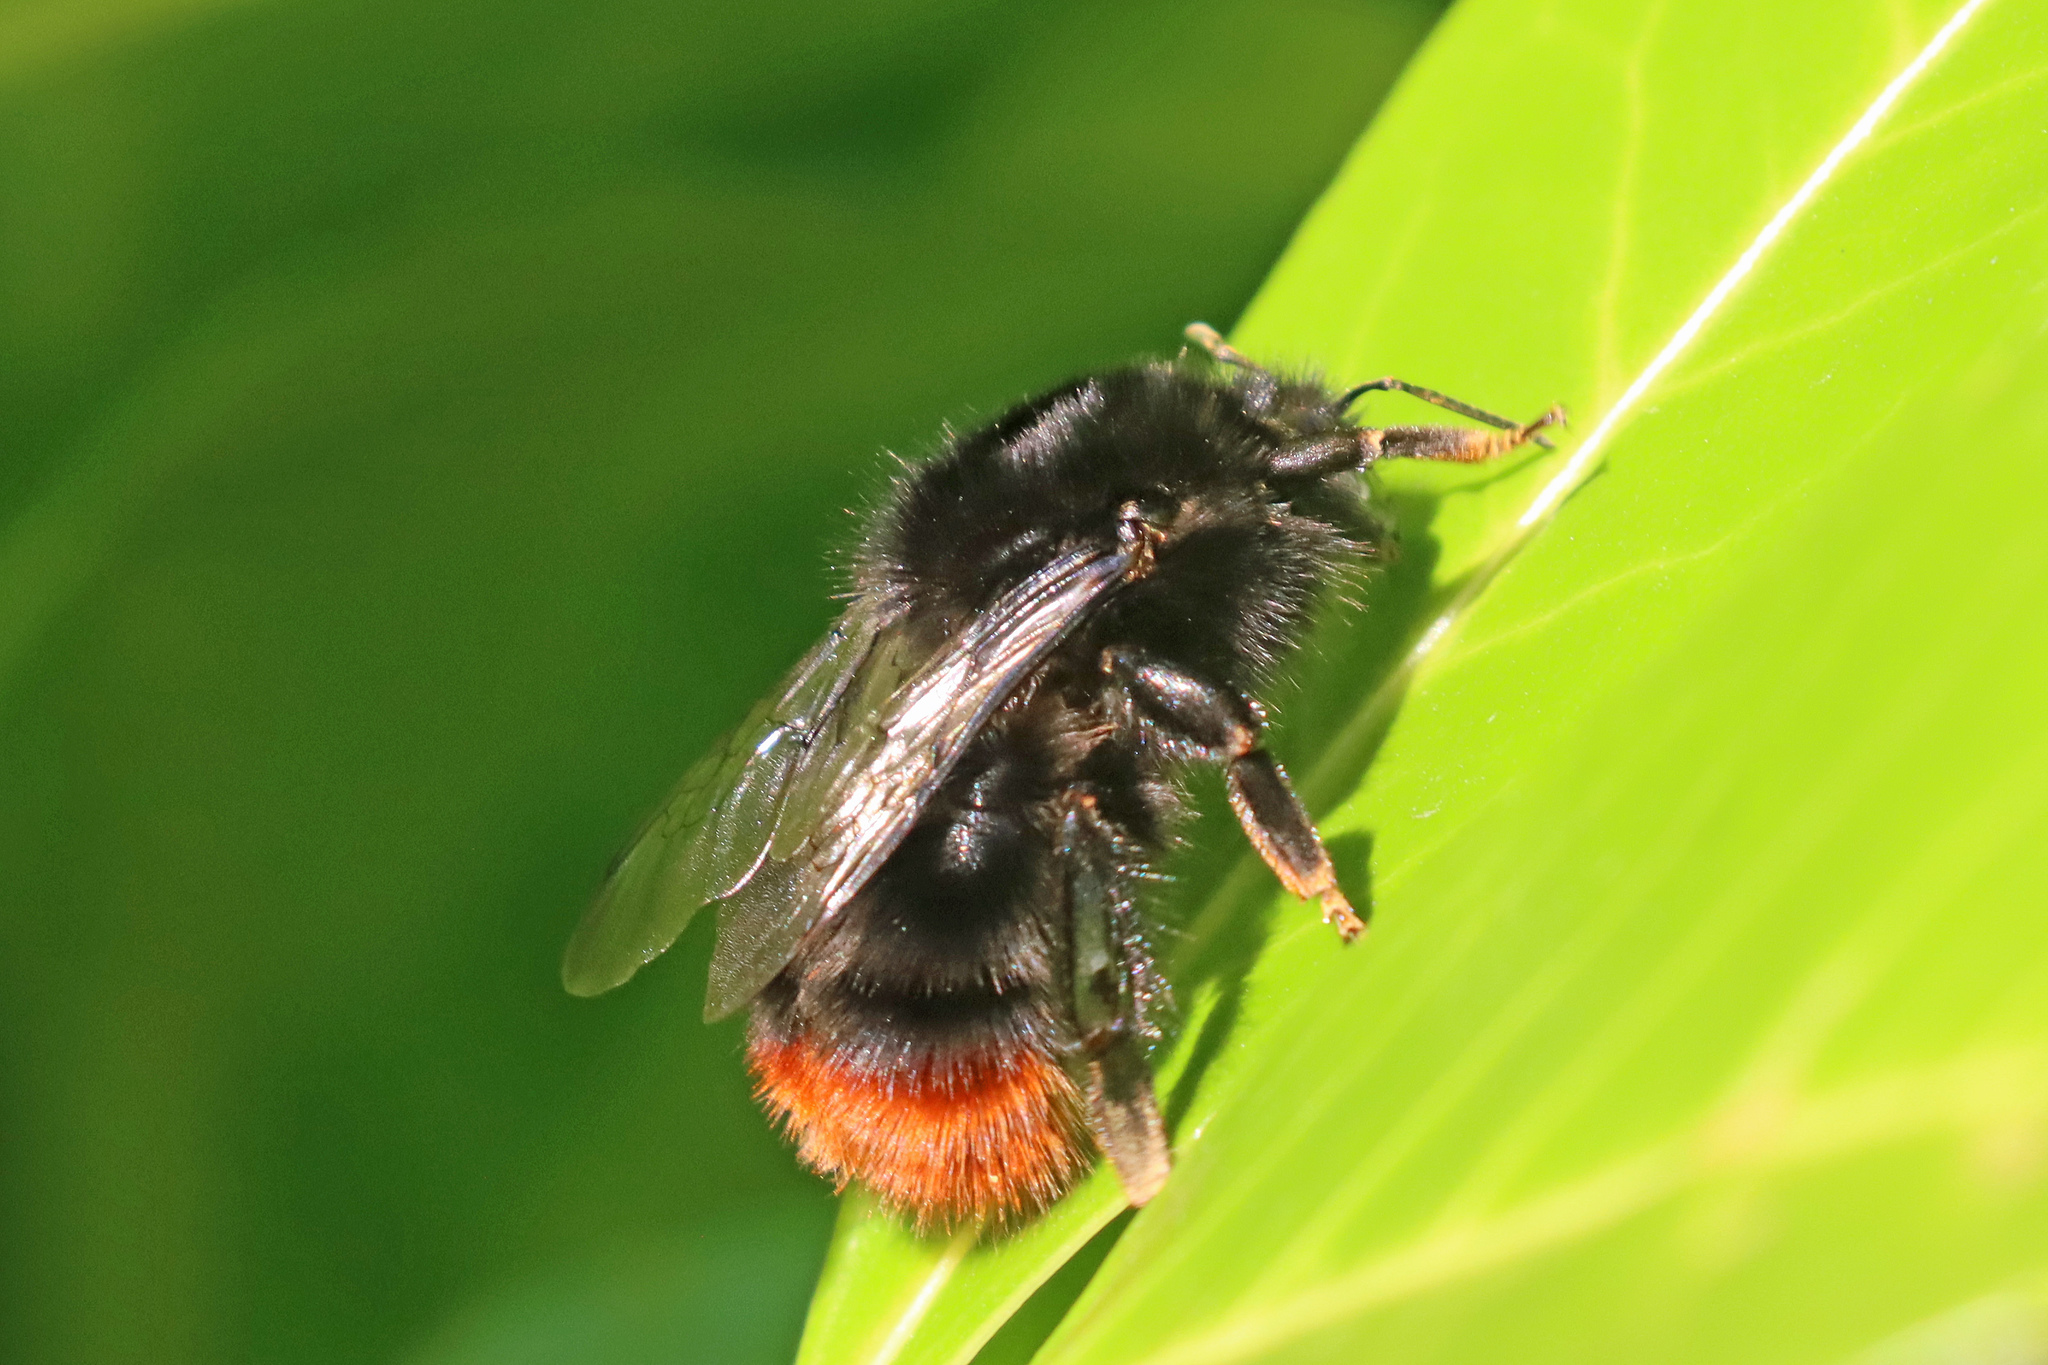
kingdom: Animalia
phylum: Arthropoda
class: Insecta
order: Hymenoptera
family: Apidae
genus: Bombus
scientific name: Bombus lapidarius
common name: Large red-tailed humble-bee
